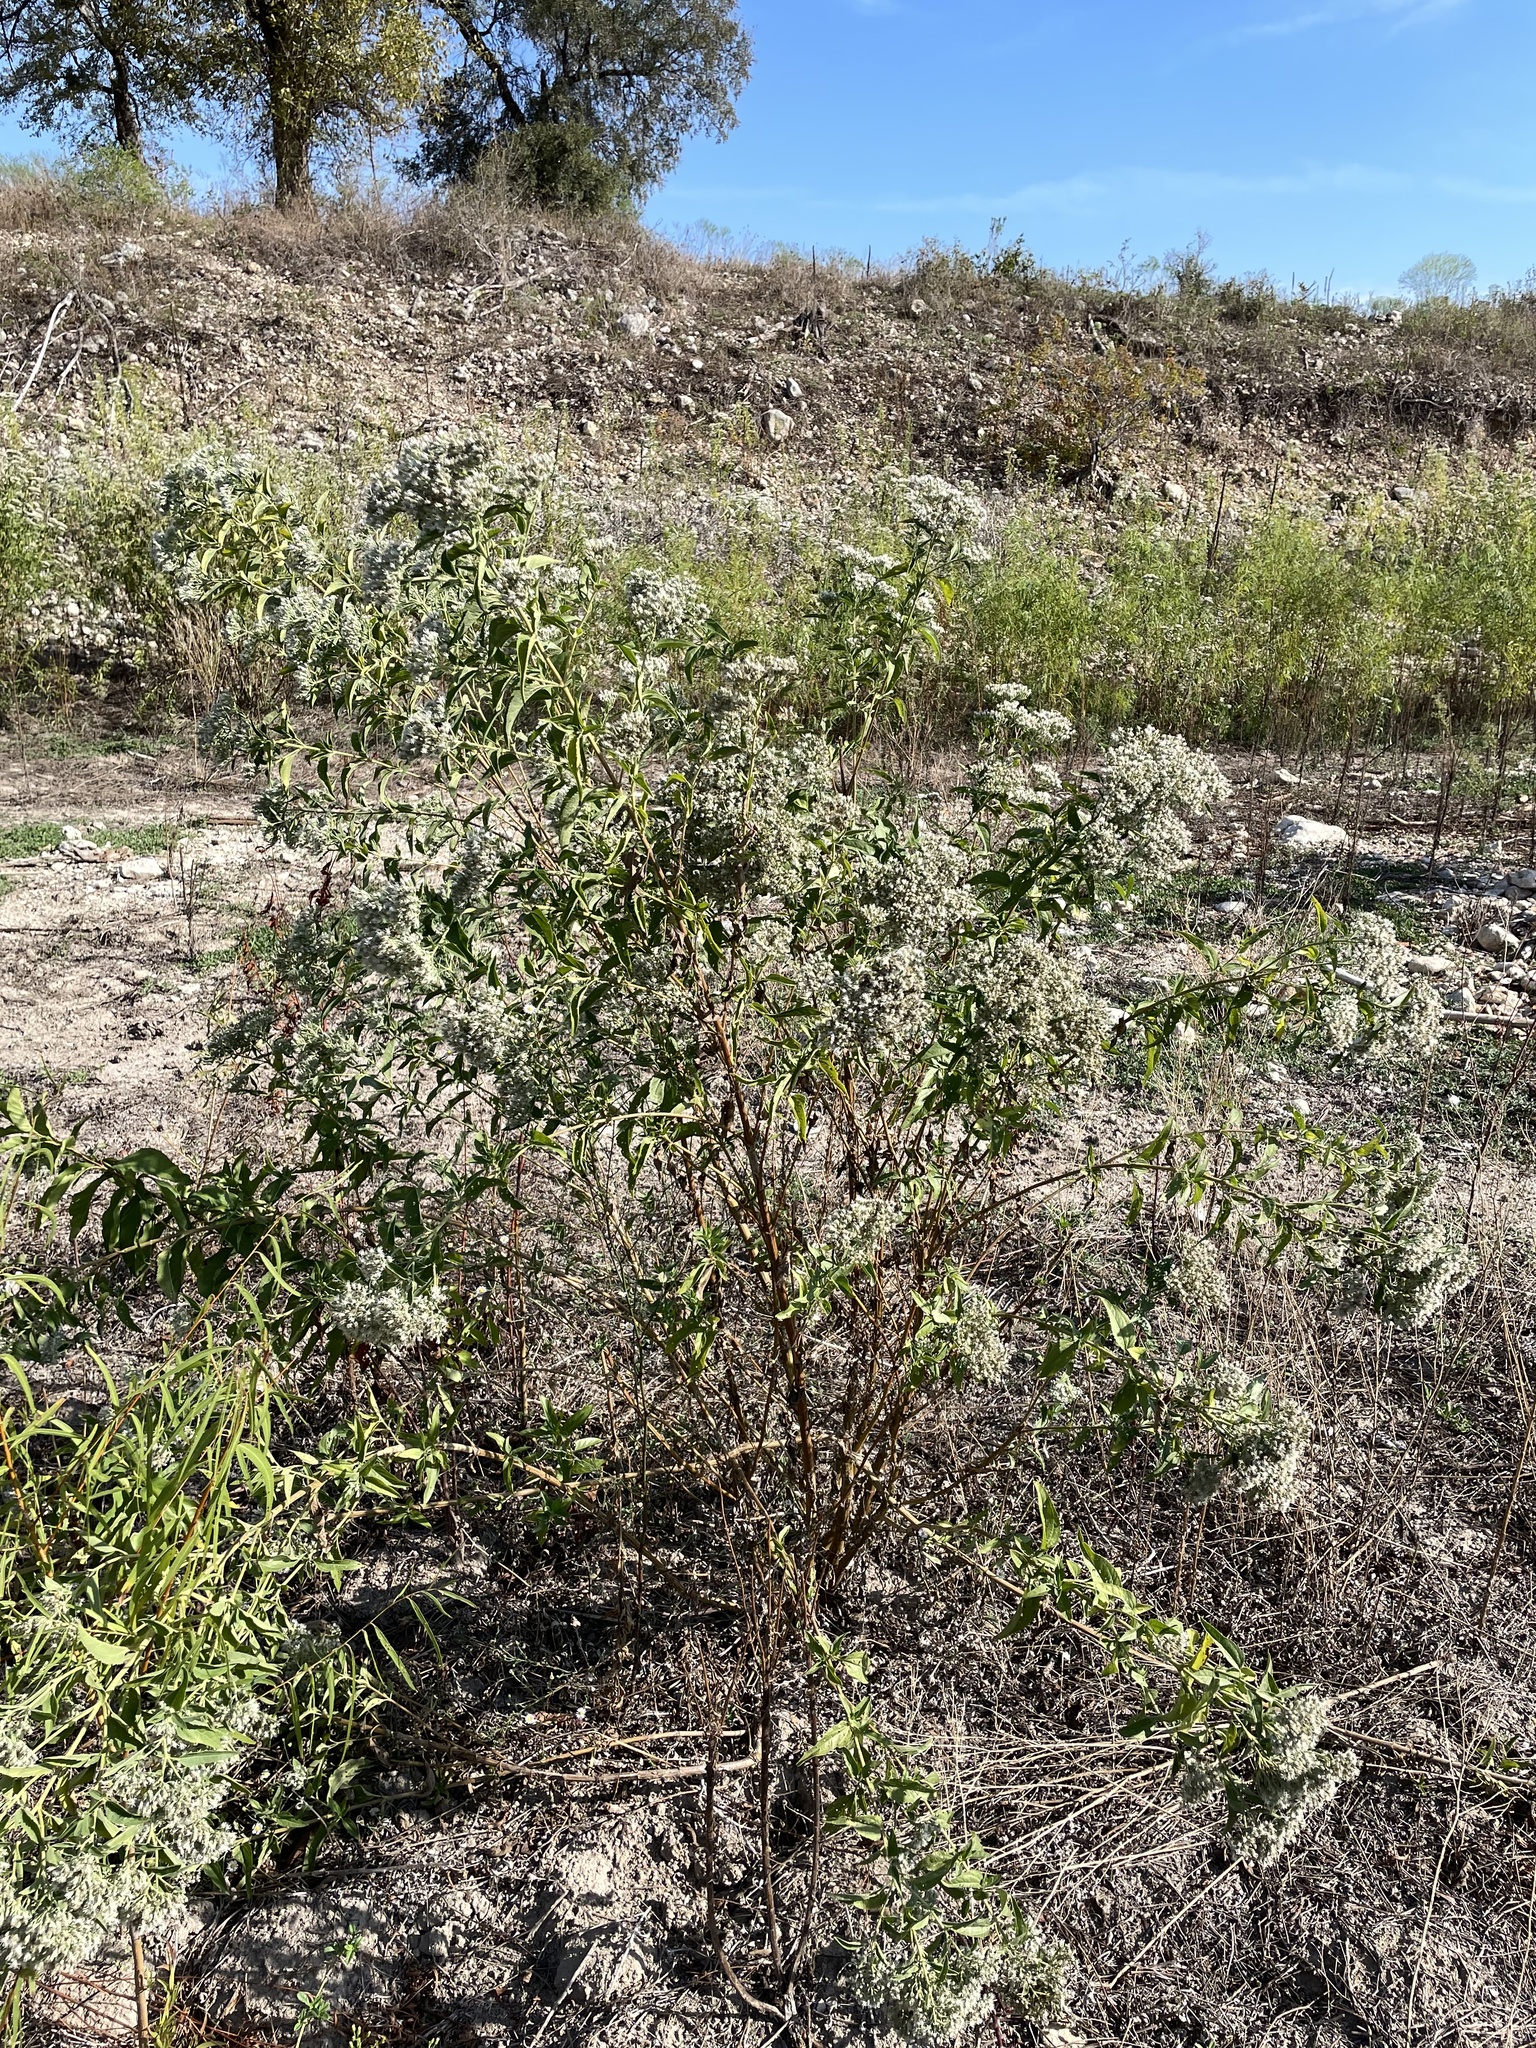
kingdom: Plantae
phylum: Tracheophyta
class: Magnoliopsida
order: Asterales
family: Asteraceae
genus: Eupatorium
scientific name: Eupatorium serotinum
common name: Late boneset
